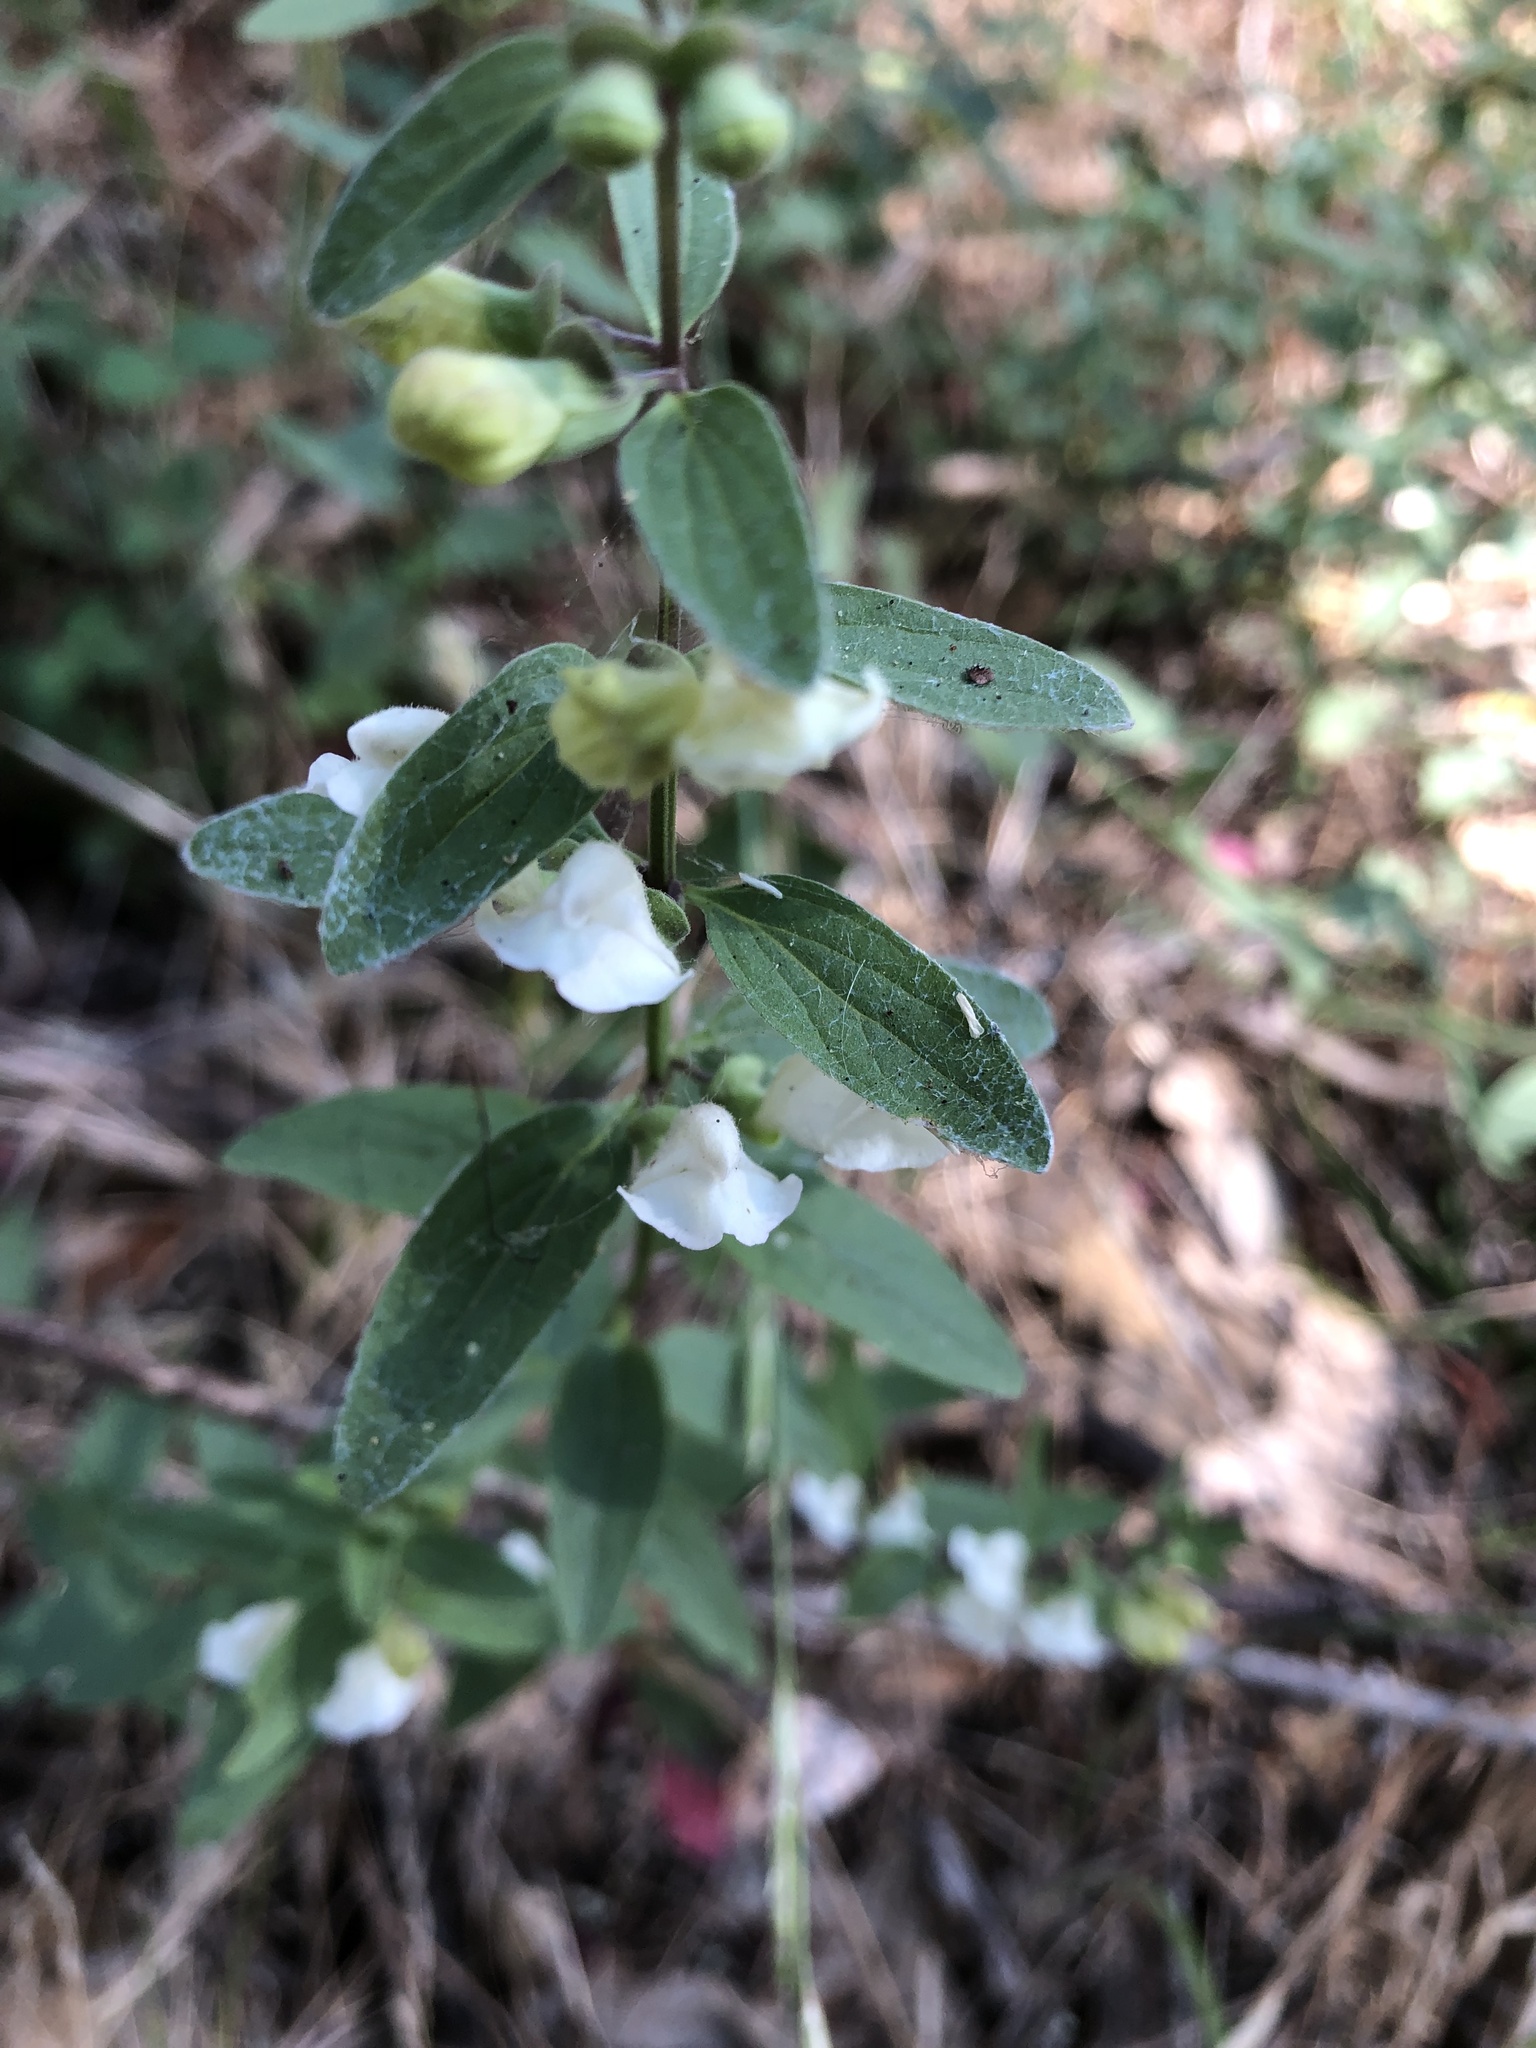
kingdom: Plantae
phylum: Tracheophyta
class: Magnoliopsida
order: Lamiales
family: Lamiaceae
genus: Scutellaria
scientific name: Scutellaria californica
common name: California scullcap
